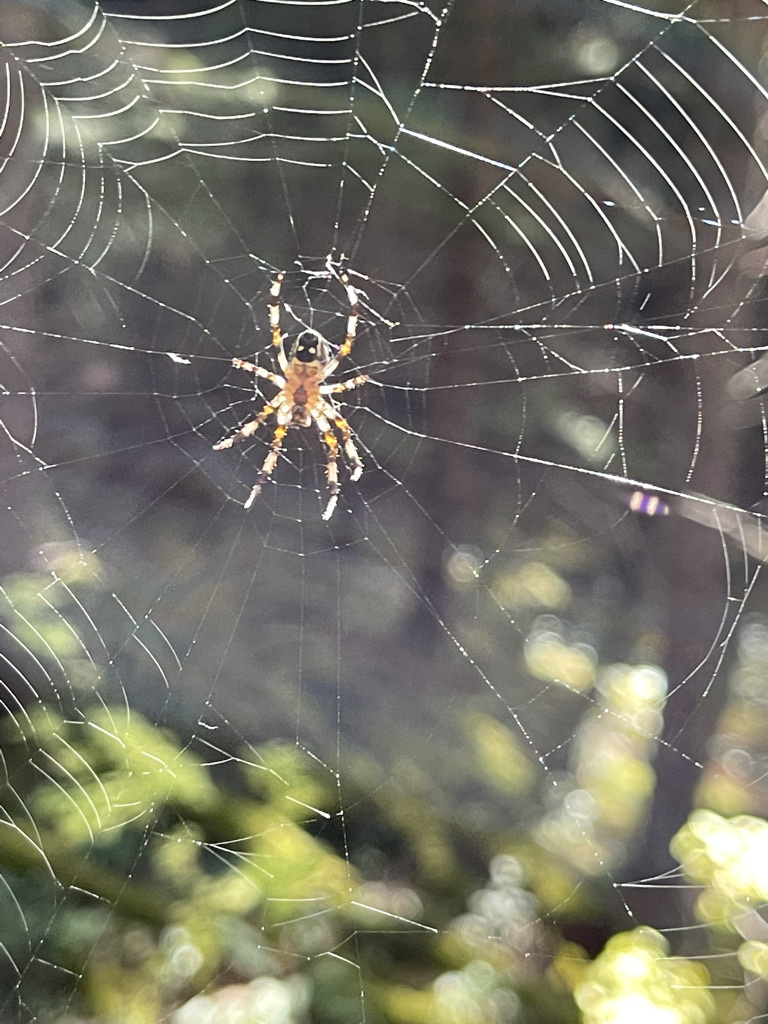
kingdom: Animalia
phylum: Arthropoda
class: Arachnida
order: Araneae
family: Araneidae
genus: Araneus
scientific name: Araneus nordmanni
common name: Nordmann's orbweaver
